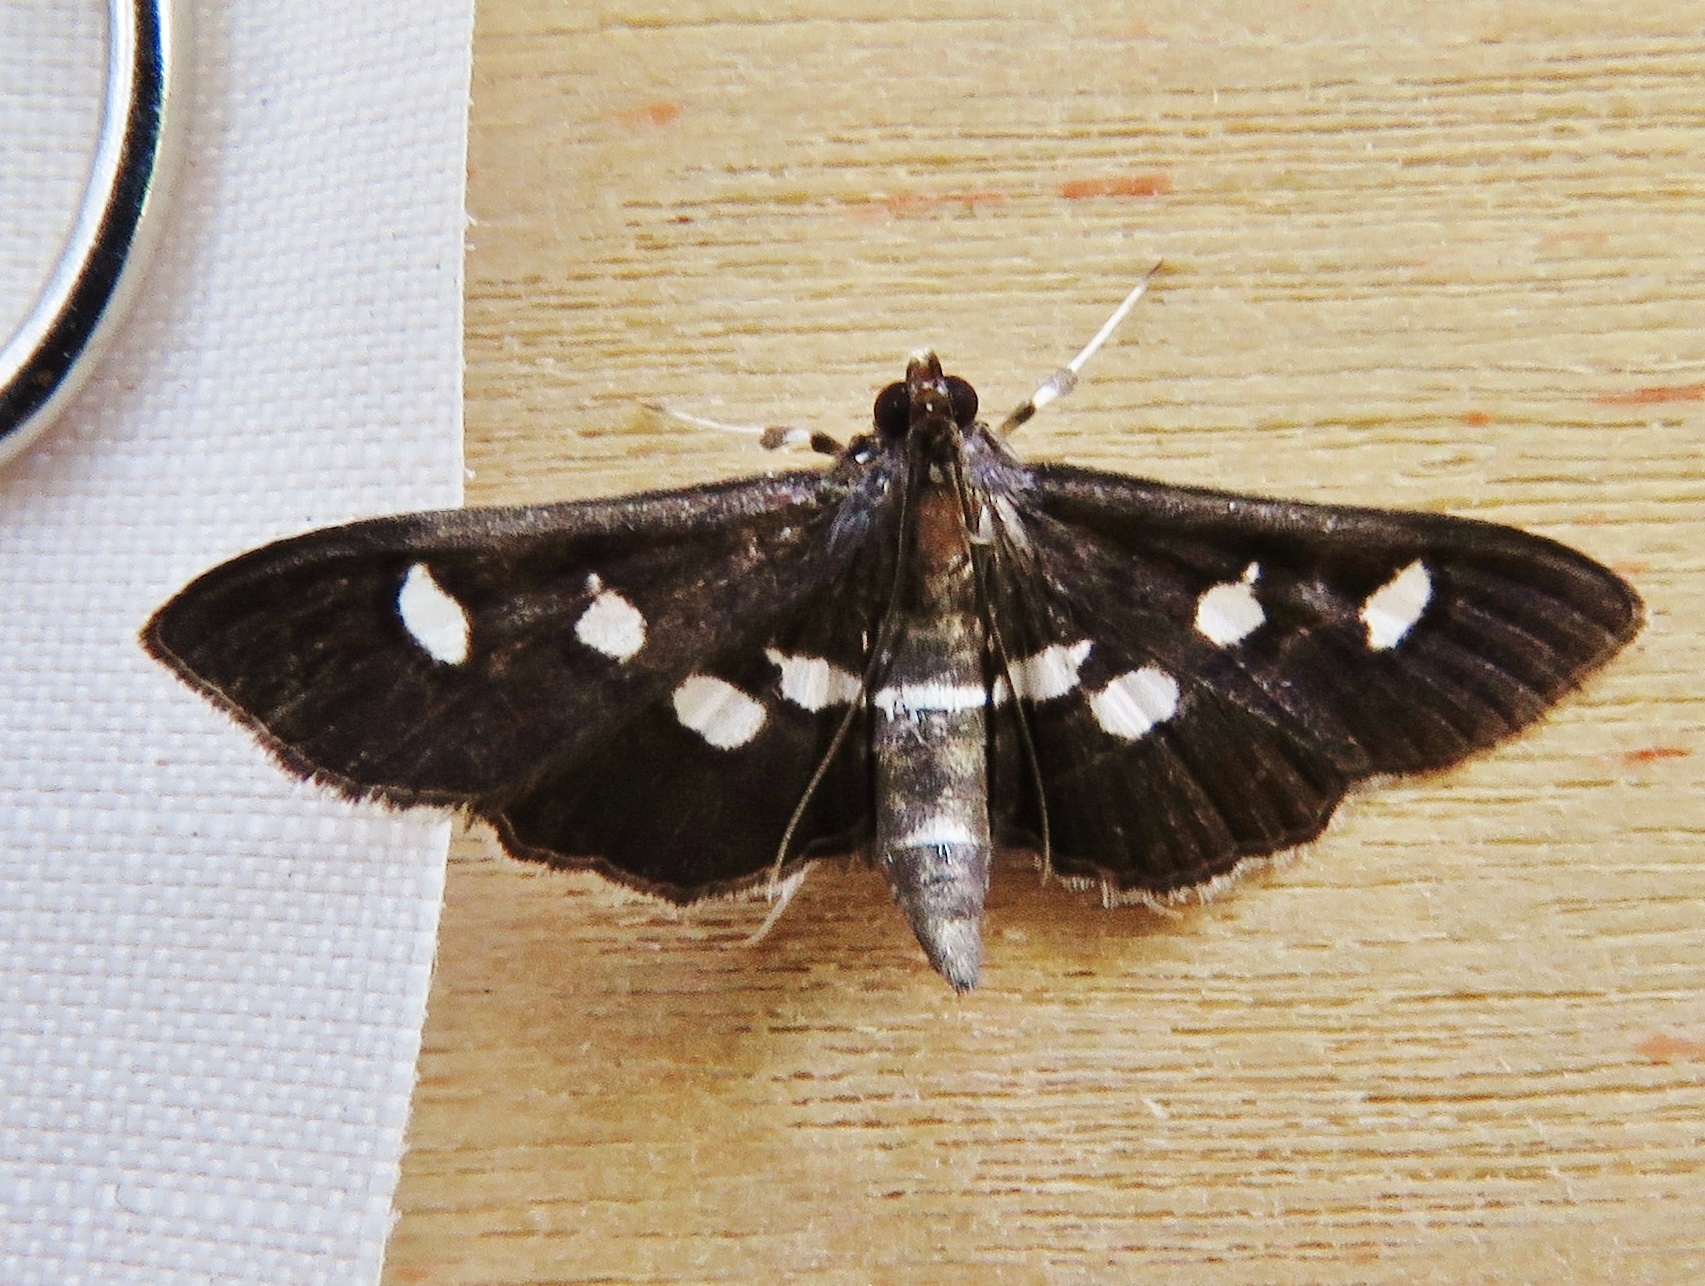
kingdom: Animalia
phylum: Arthropoda
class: Insecta
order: Lepidoptera
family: Crambidae
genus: Desmia
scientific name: Desmia funeralis
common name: Grape leaf folder moth
